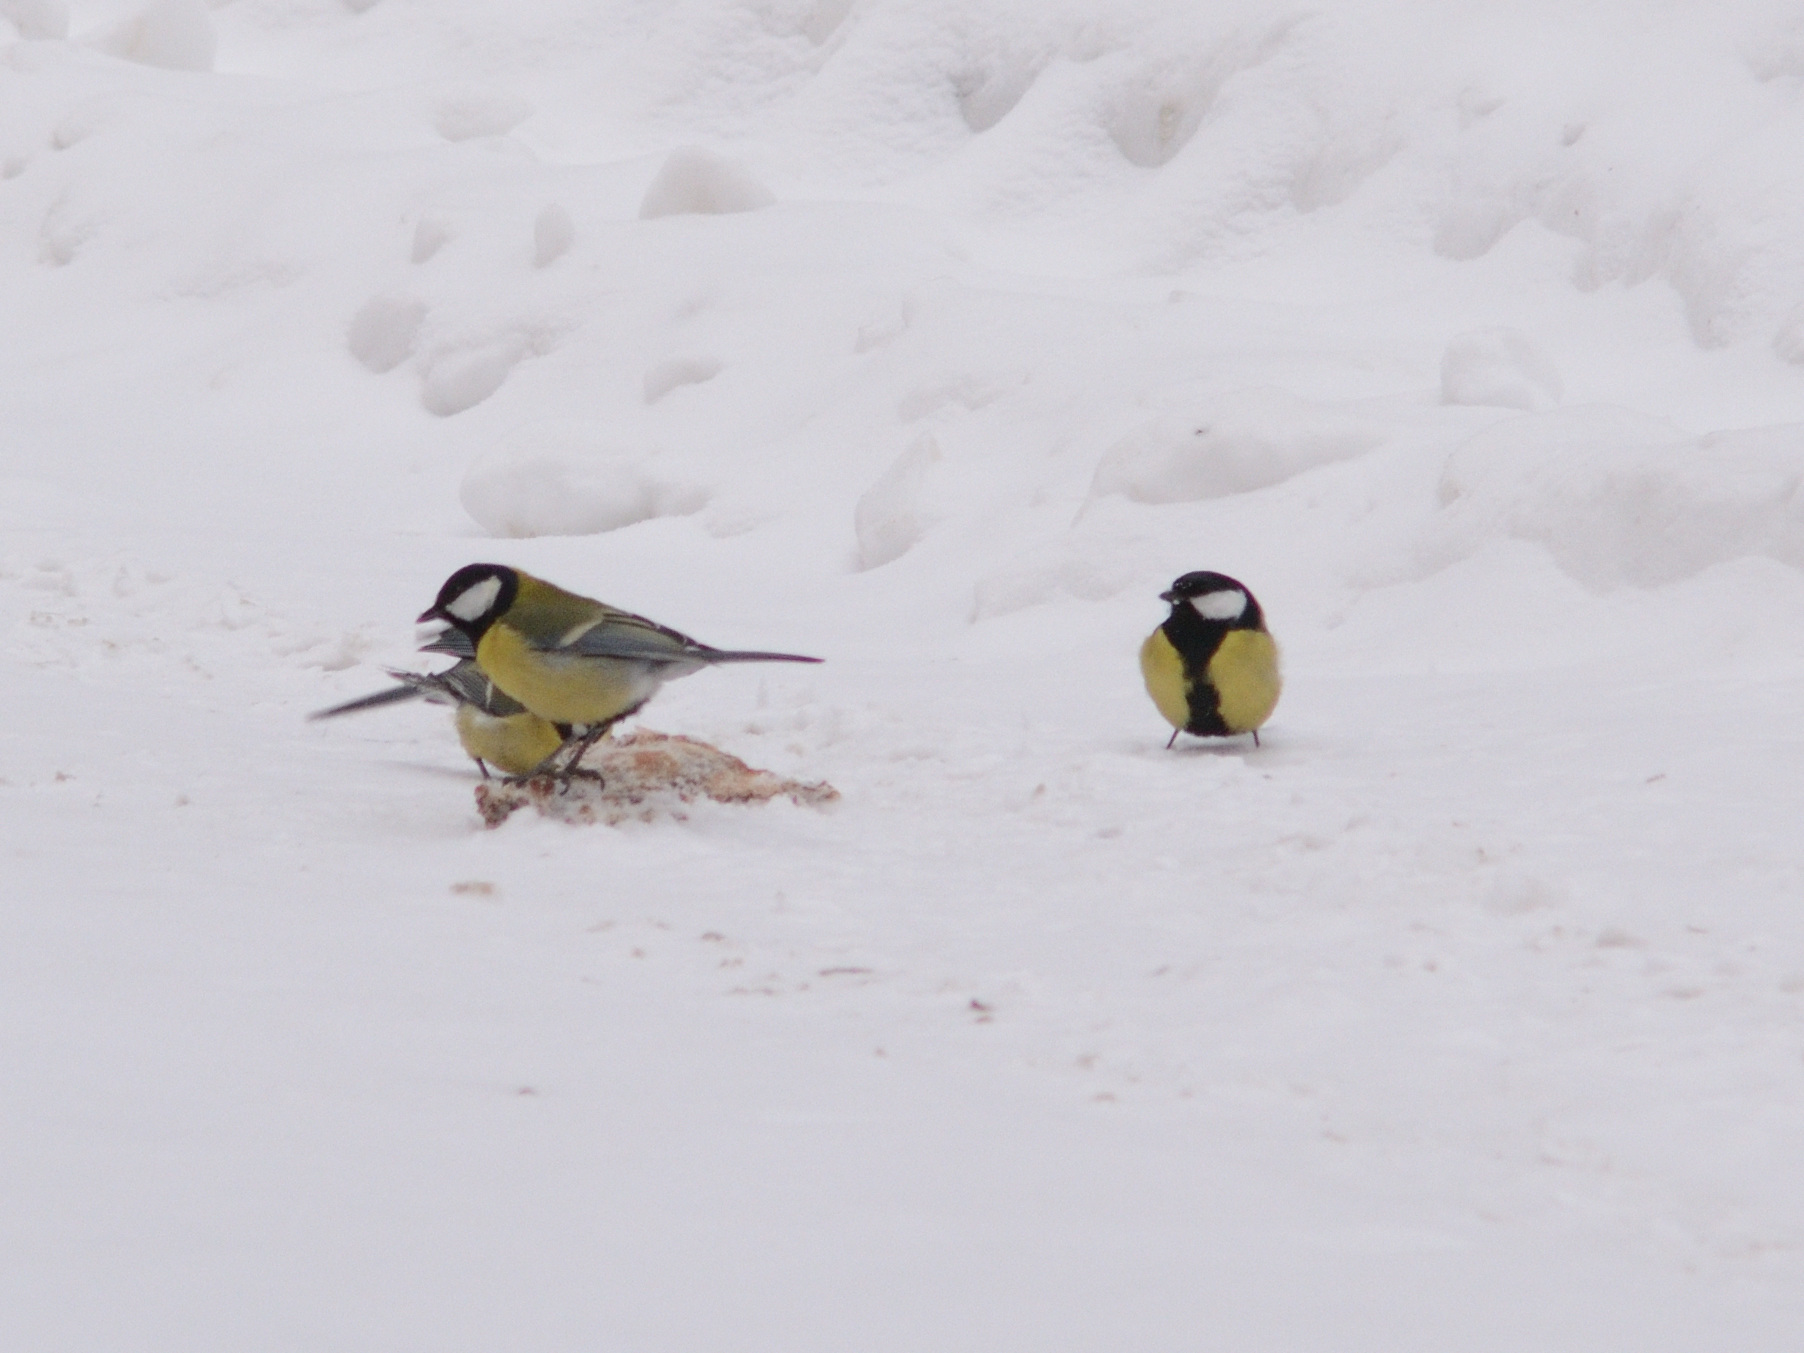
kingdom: Animalia
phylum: Chordata
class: Aves
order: Passeriformes
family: Paridae
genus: Parus
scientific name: Parus major
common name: Great tit
